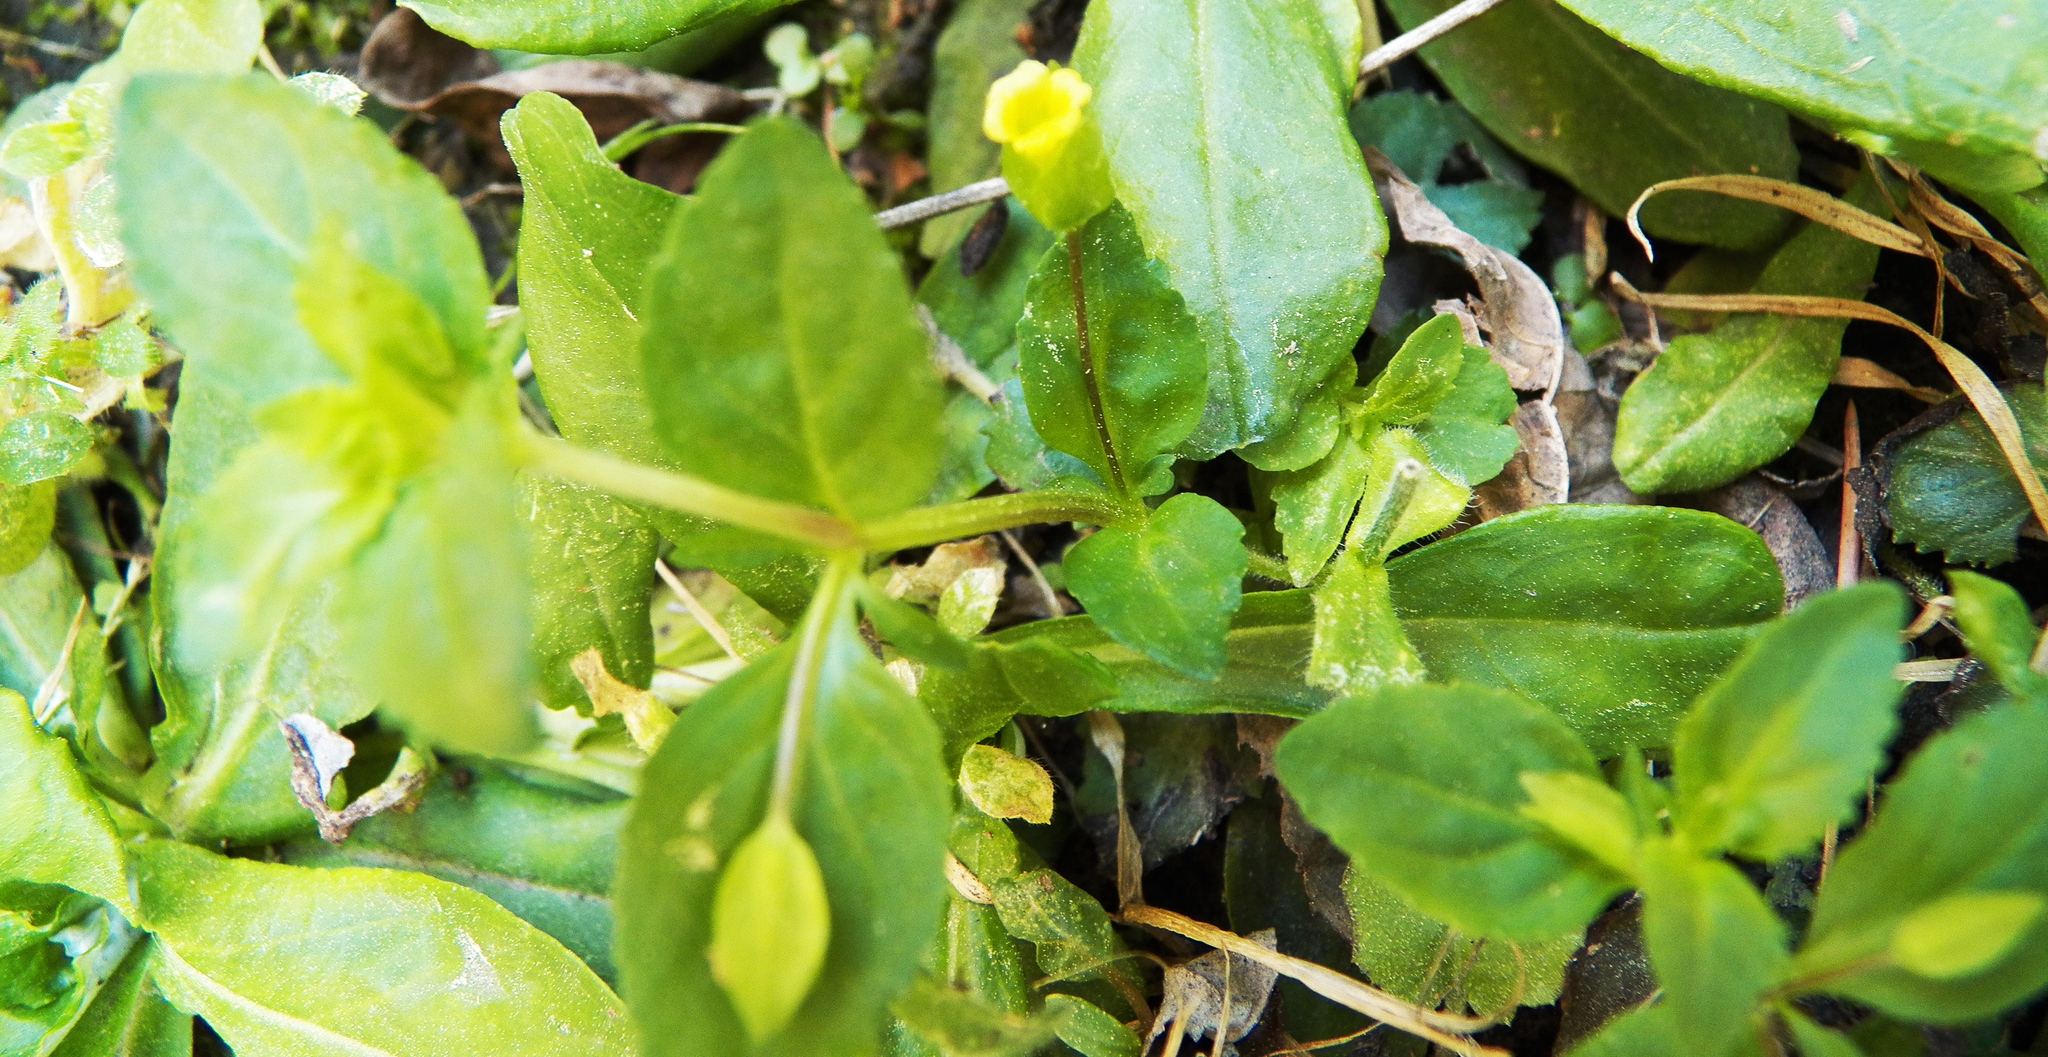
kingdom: Plantae
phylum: Tracheophyta
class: Magnoliopsida
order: Lamiales
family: Plantaginaceae
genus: Mecardonia
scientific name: Mecardonia procumbens
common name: Baby jump-up
